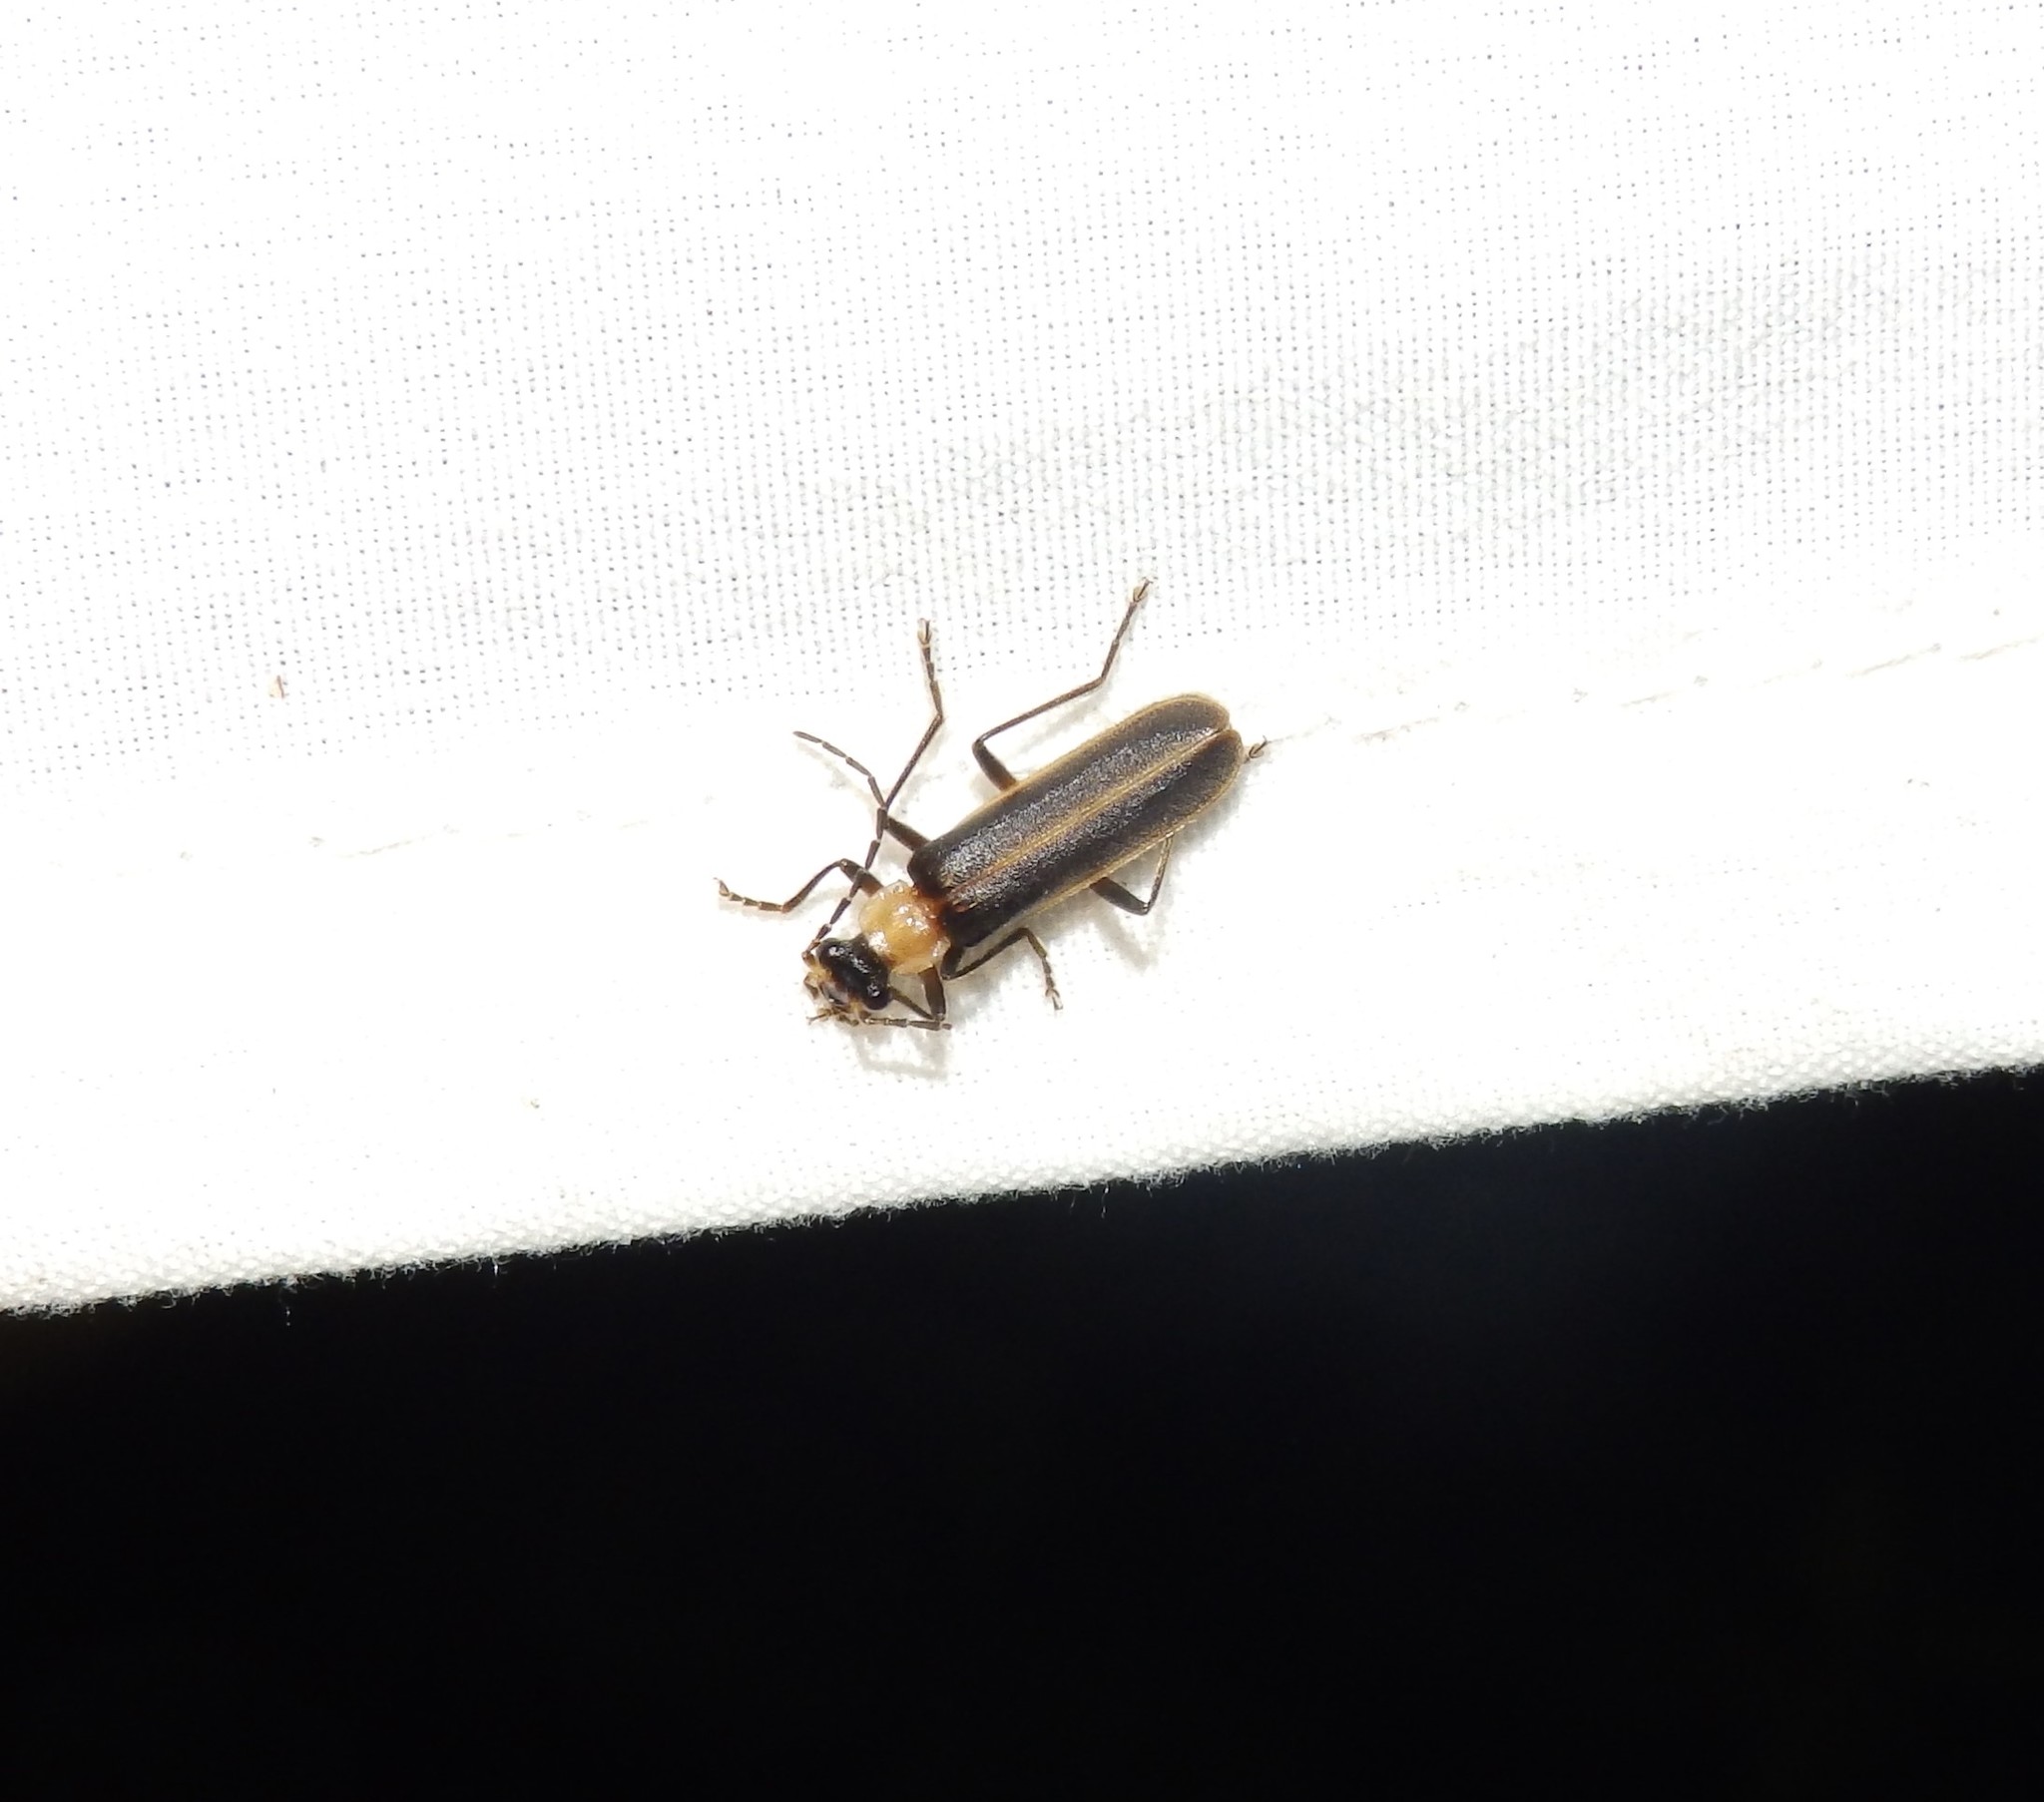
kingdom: Animalia
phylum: Arthropoda
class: Insecta
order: Coleoptera
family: Cantharidae
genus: Podabrus
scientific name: Podabrus flavicollis
